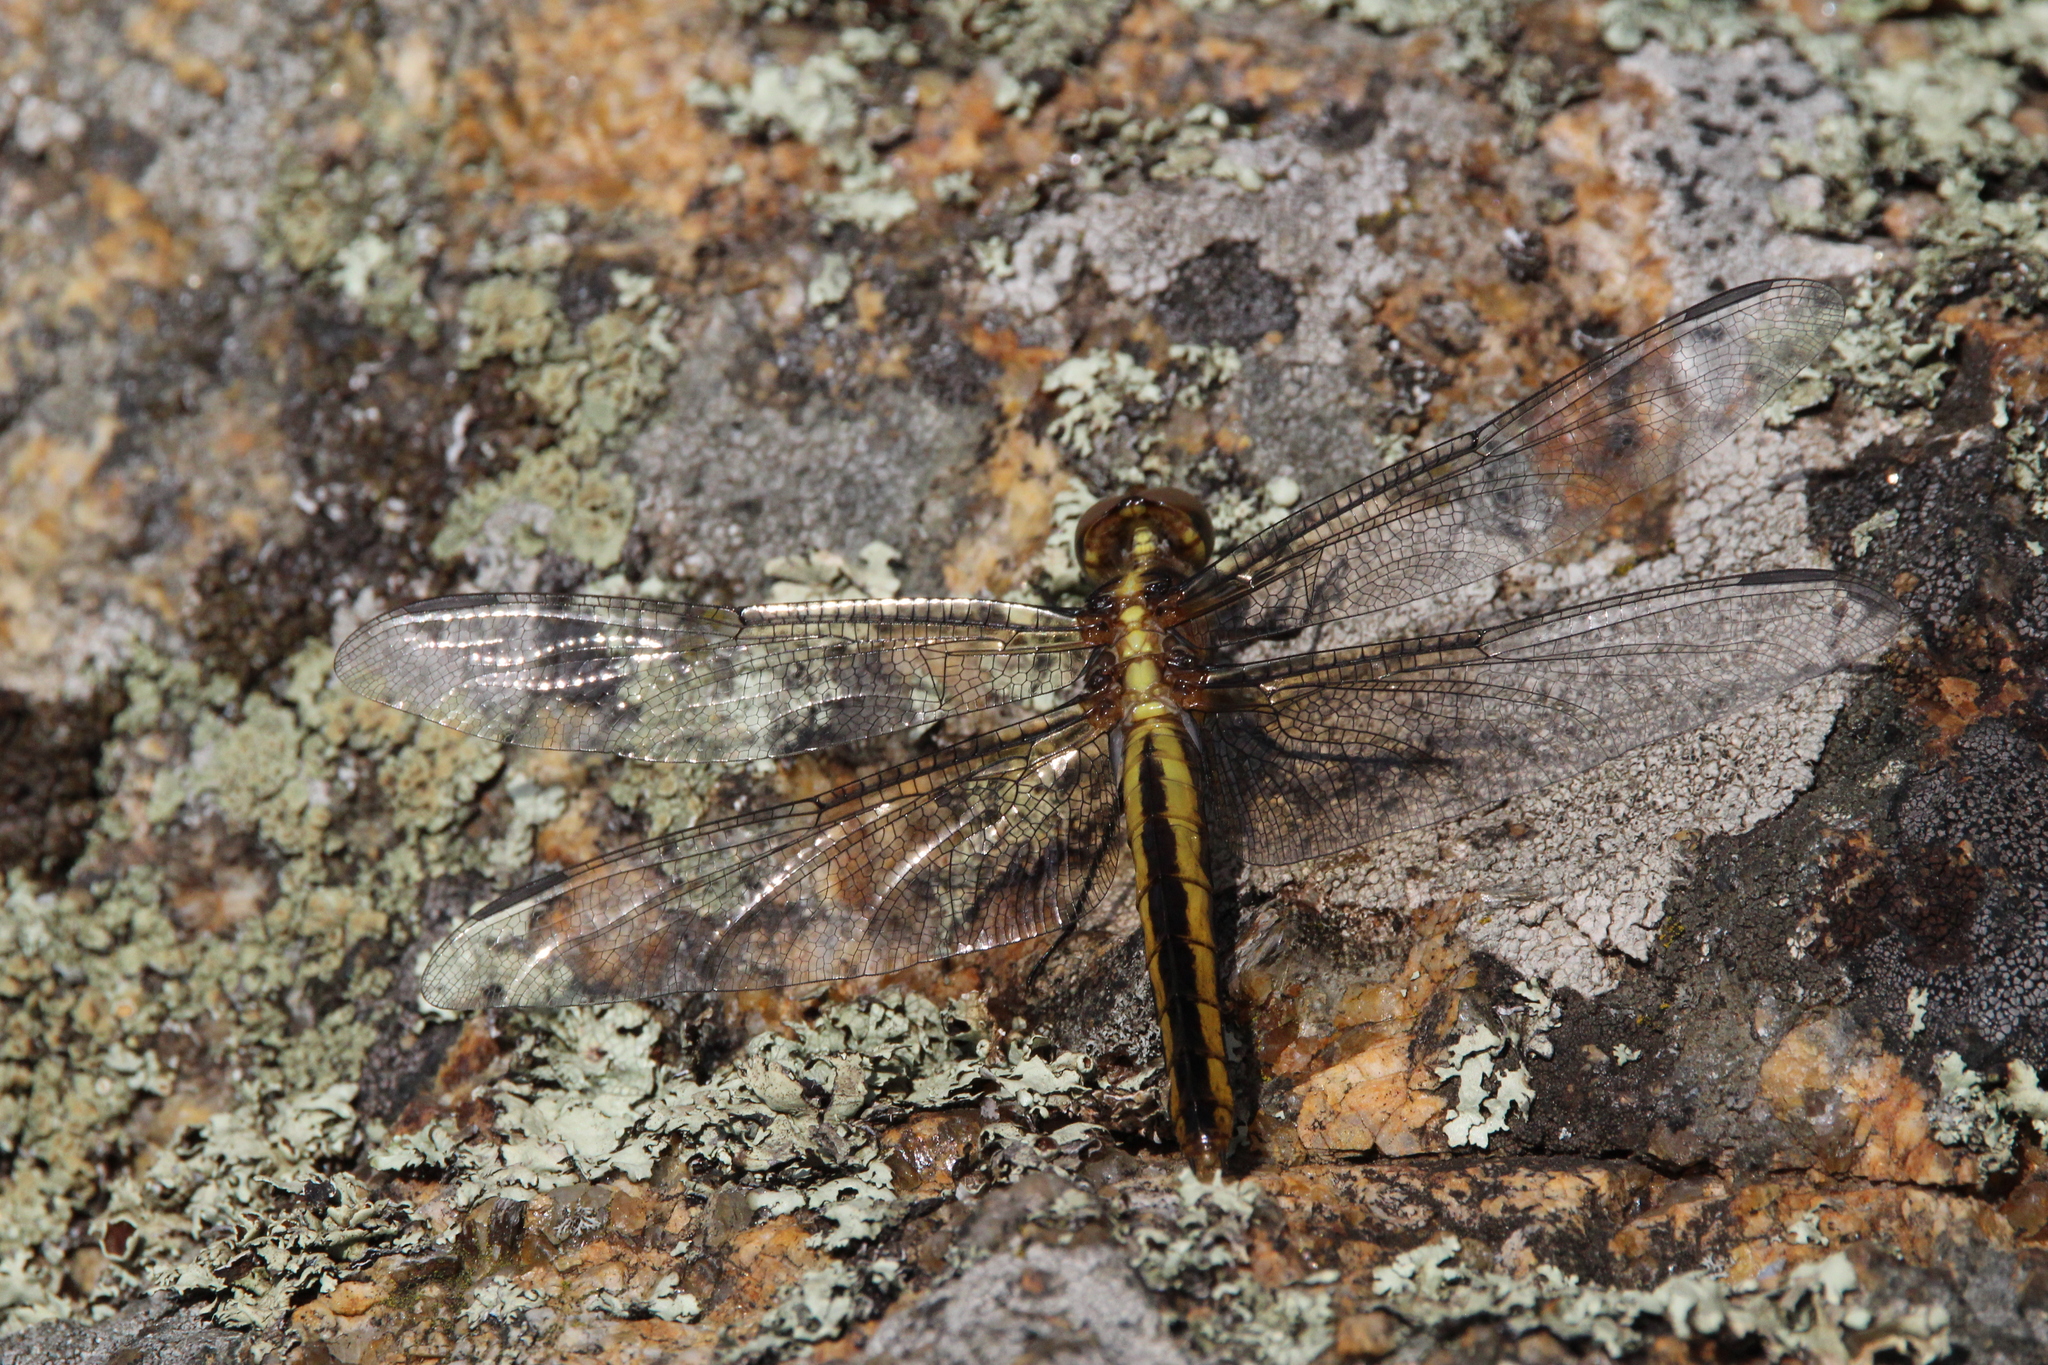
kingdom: Animalia
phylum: Arthropoda
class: Insecta
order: Odonata
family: Libellulidae
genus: Libellula
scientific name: Libellula luctuosa
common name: Widow skimmer
